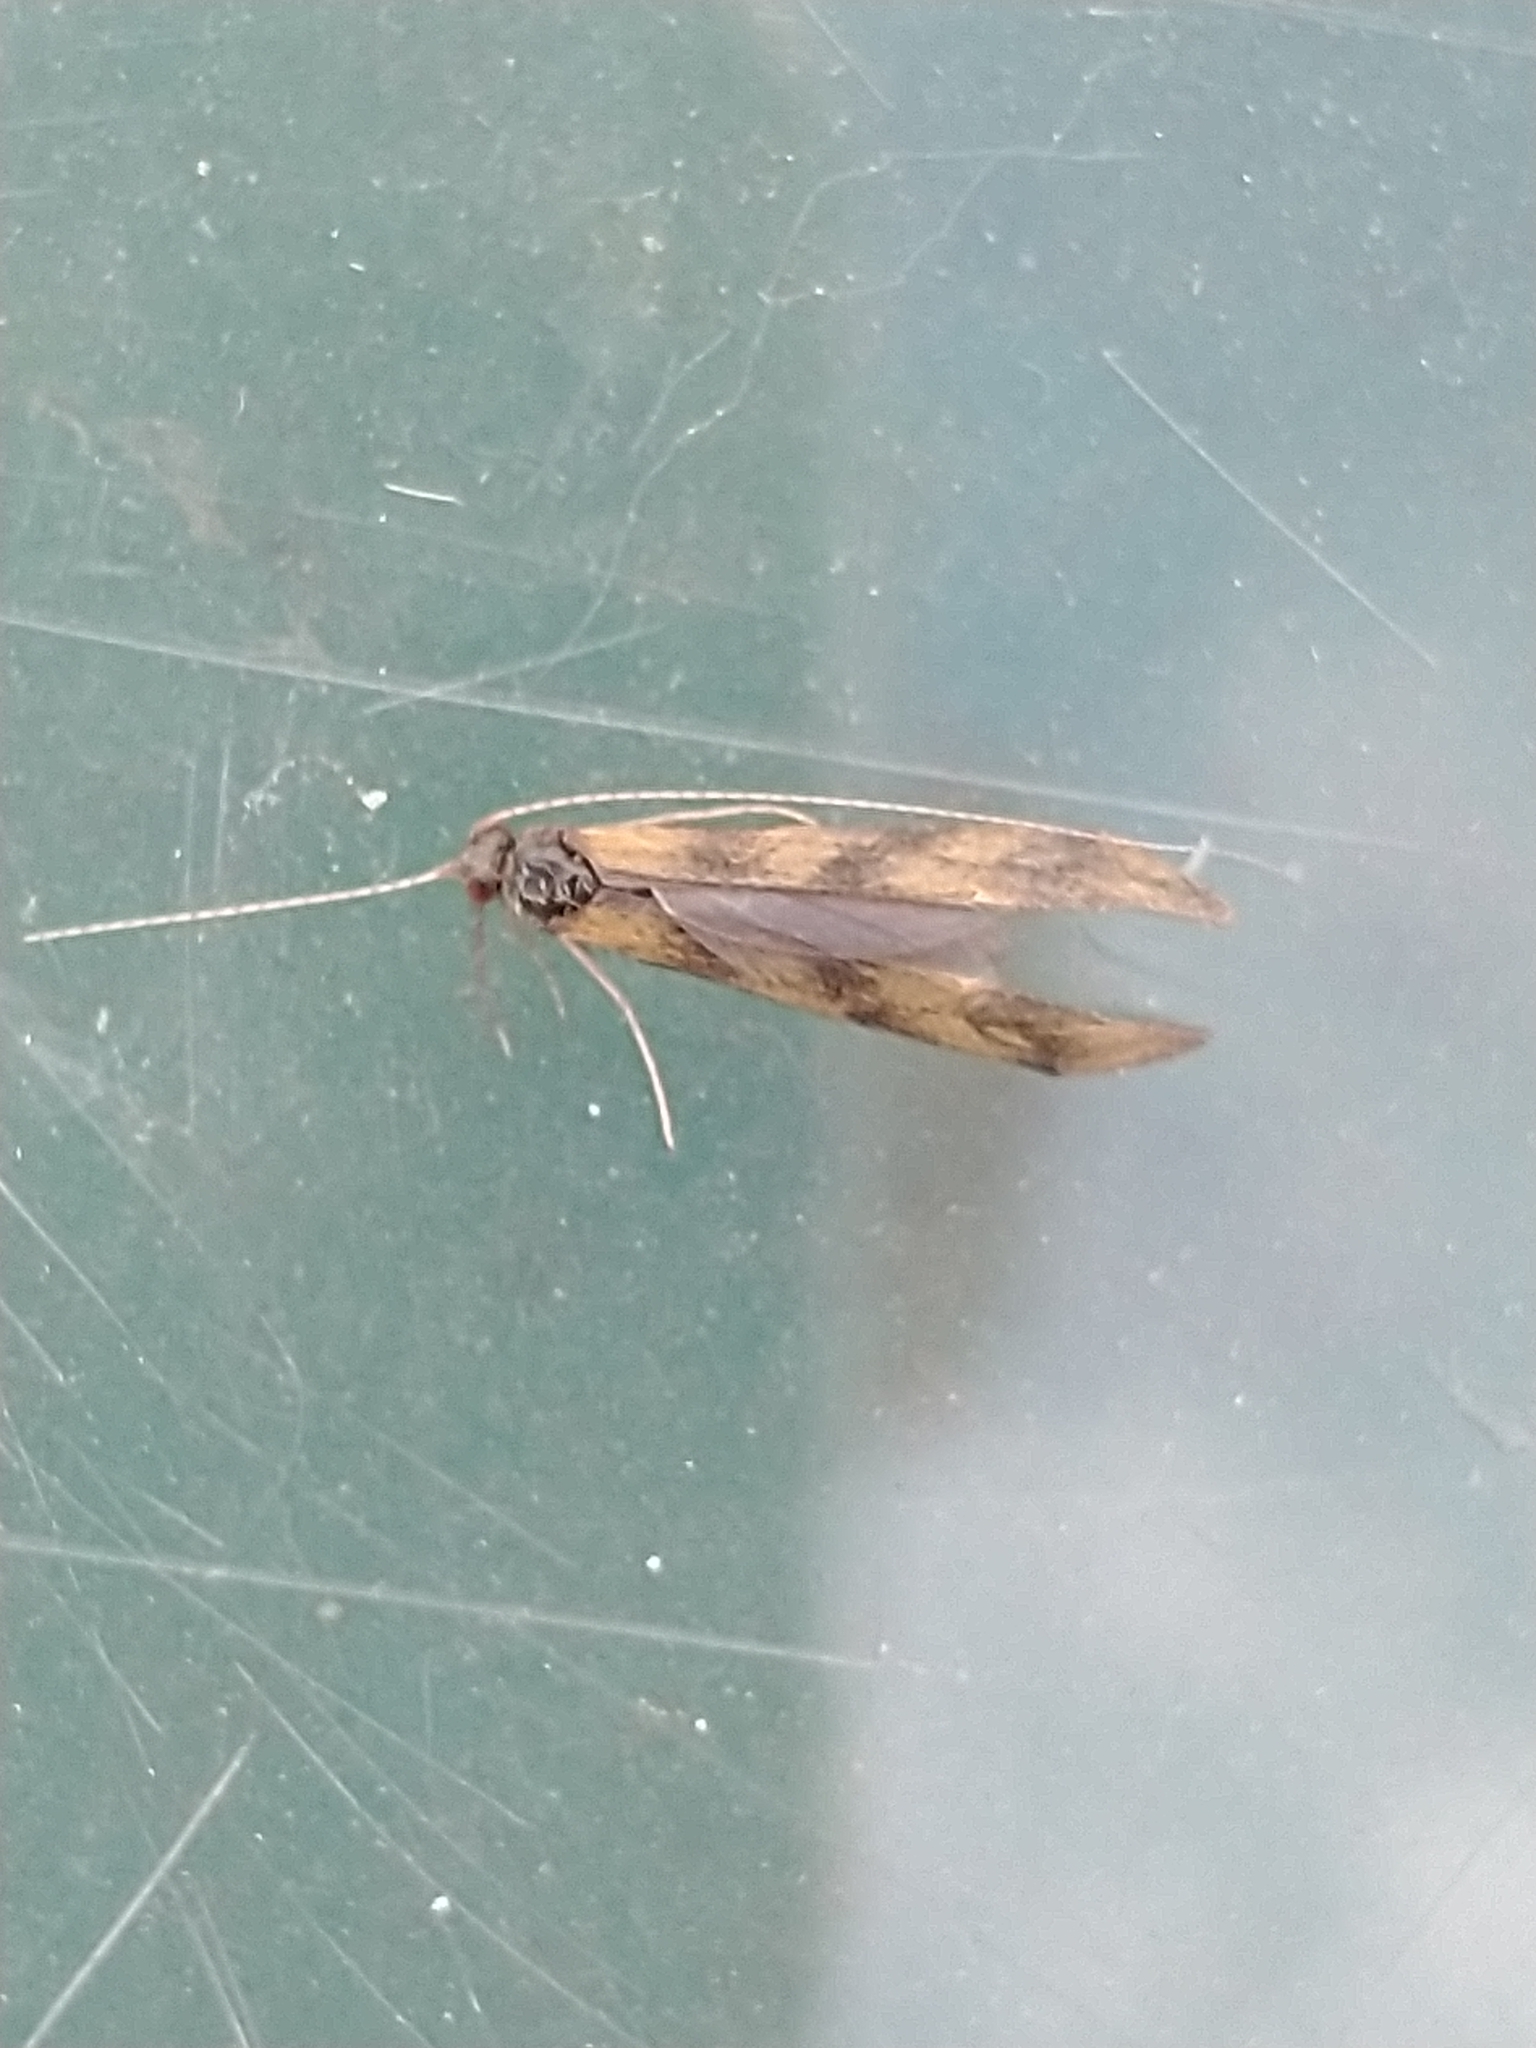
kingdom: Animalia
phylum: Arthropoda
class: Insecta
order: Trichoptera
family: Leptoceridae
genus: Mystacides
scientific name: Mystacides longicornis
